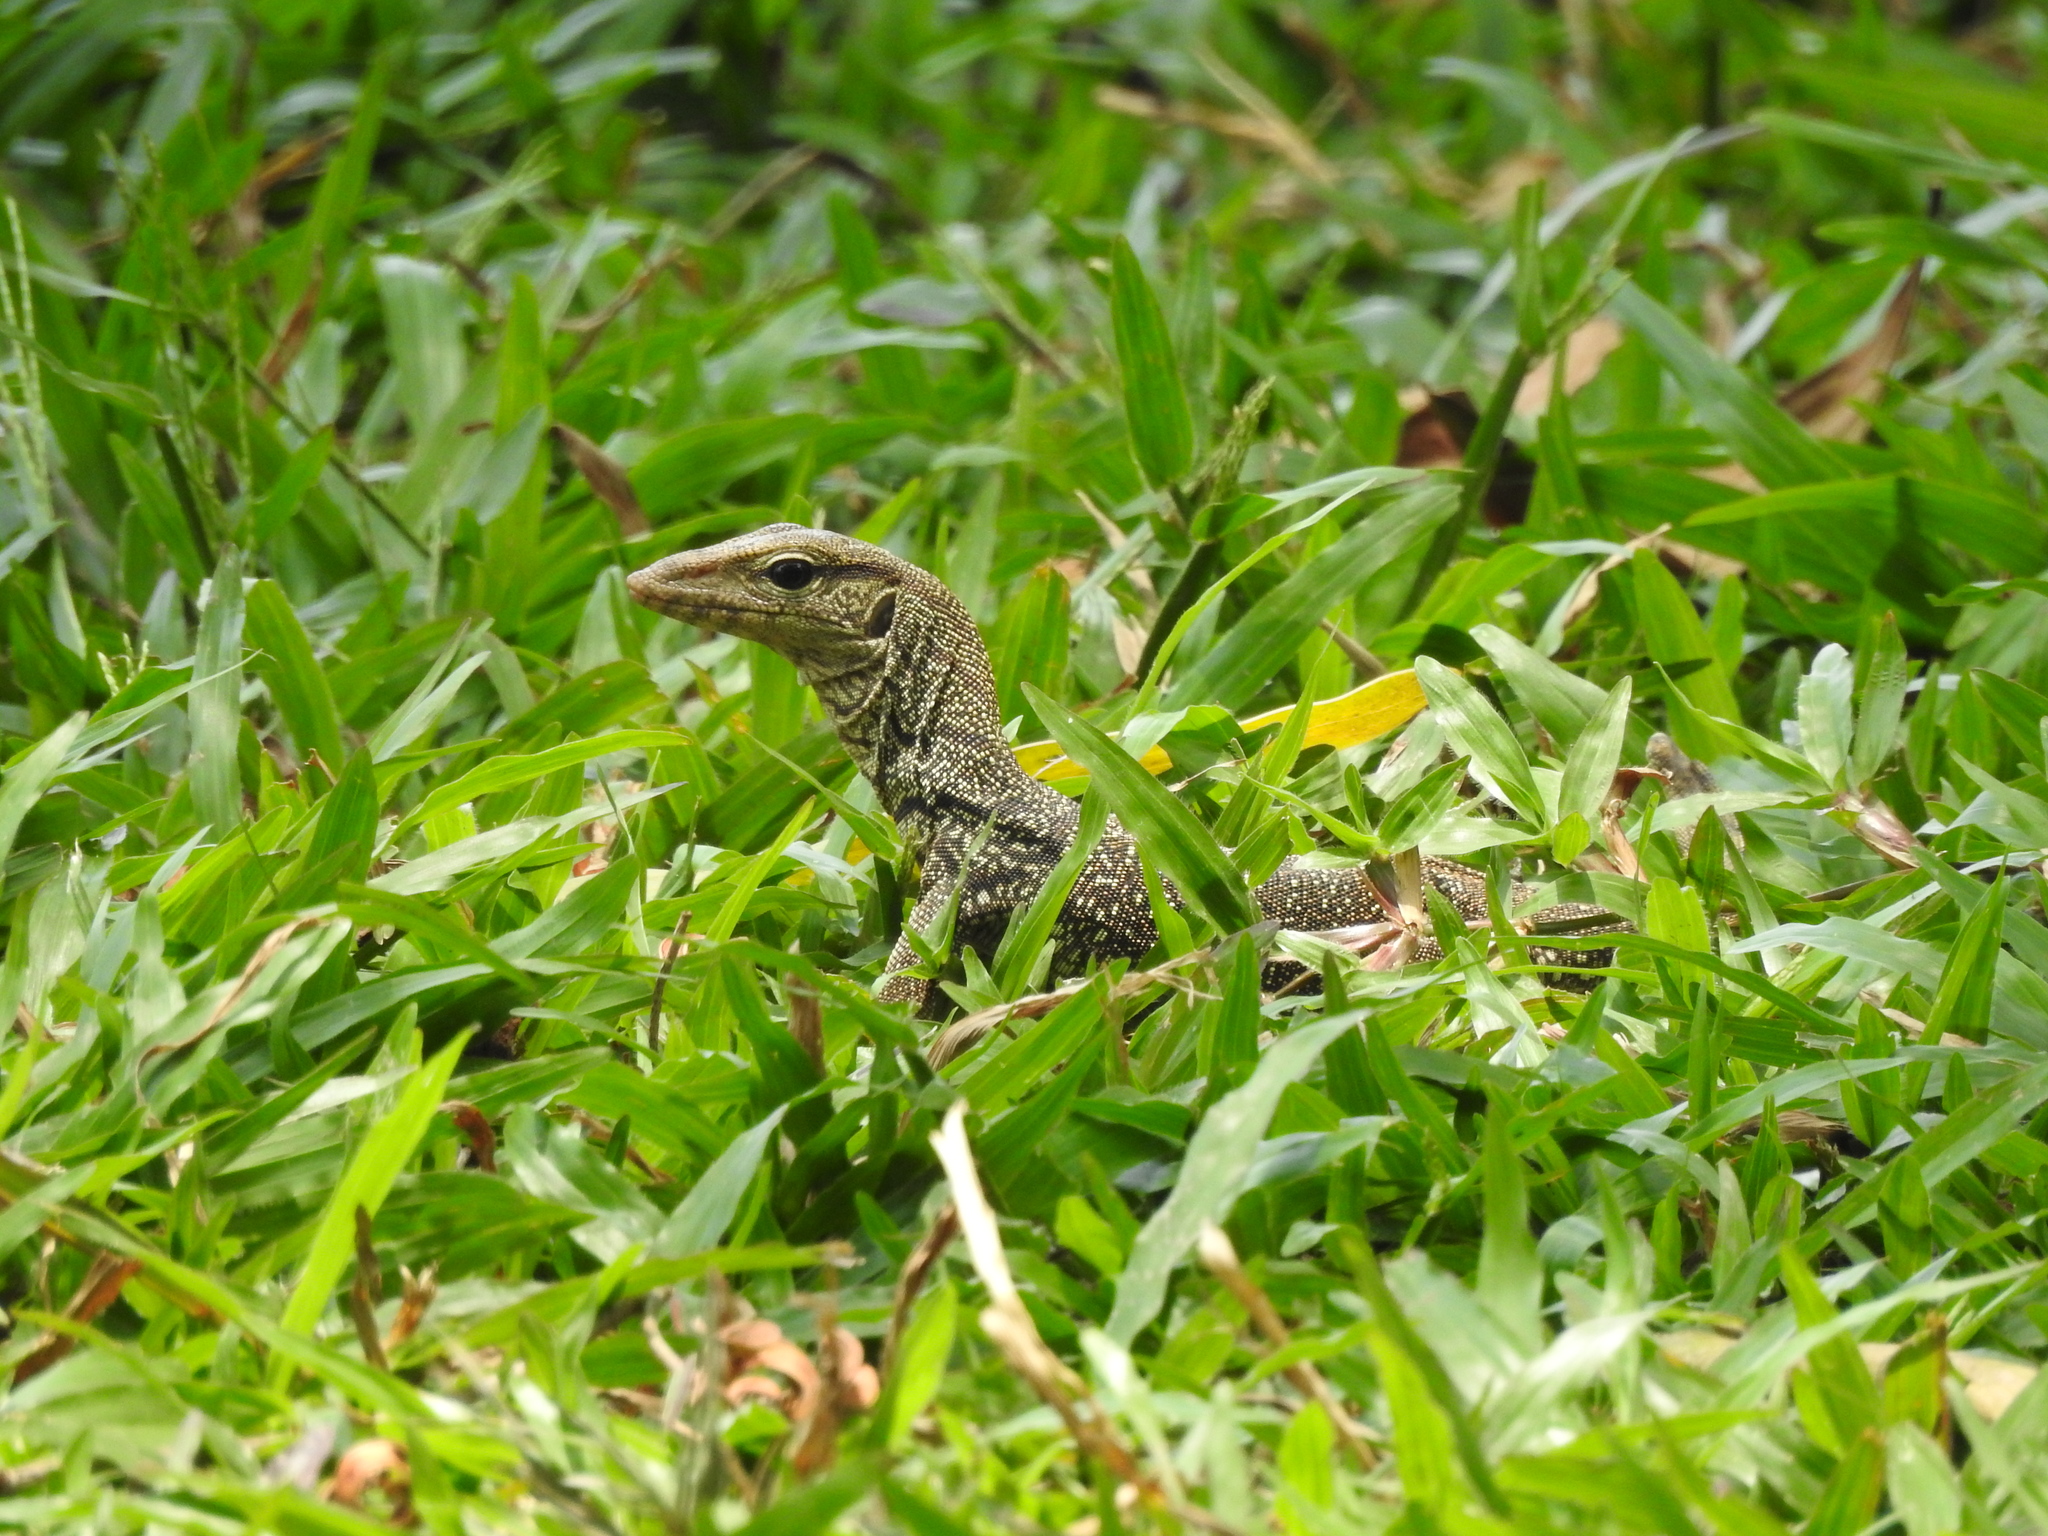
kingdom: Animalia
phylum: Chordata
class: Squamata
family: Varanidae
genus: Varanus
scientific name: Varanus nebulosus
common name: Clouded monitor
